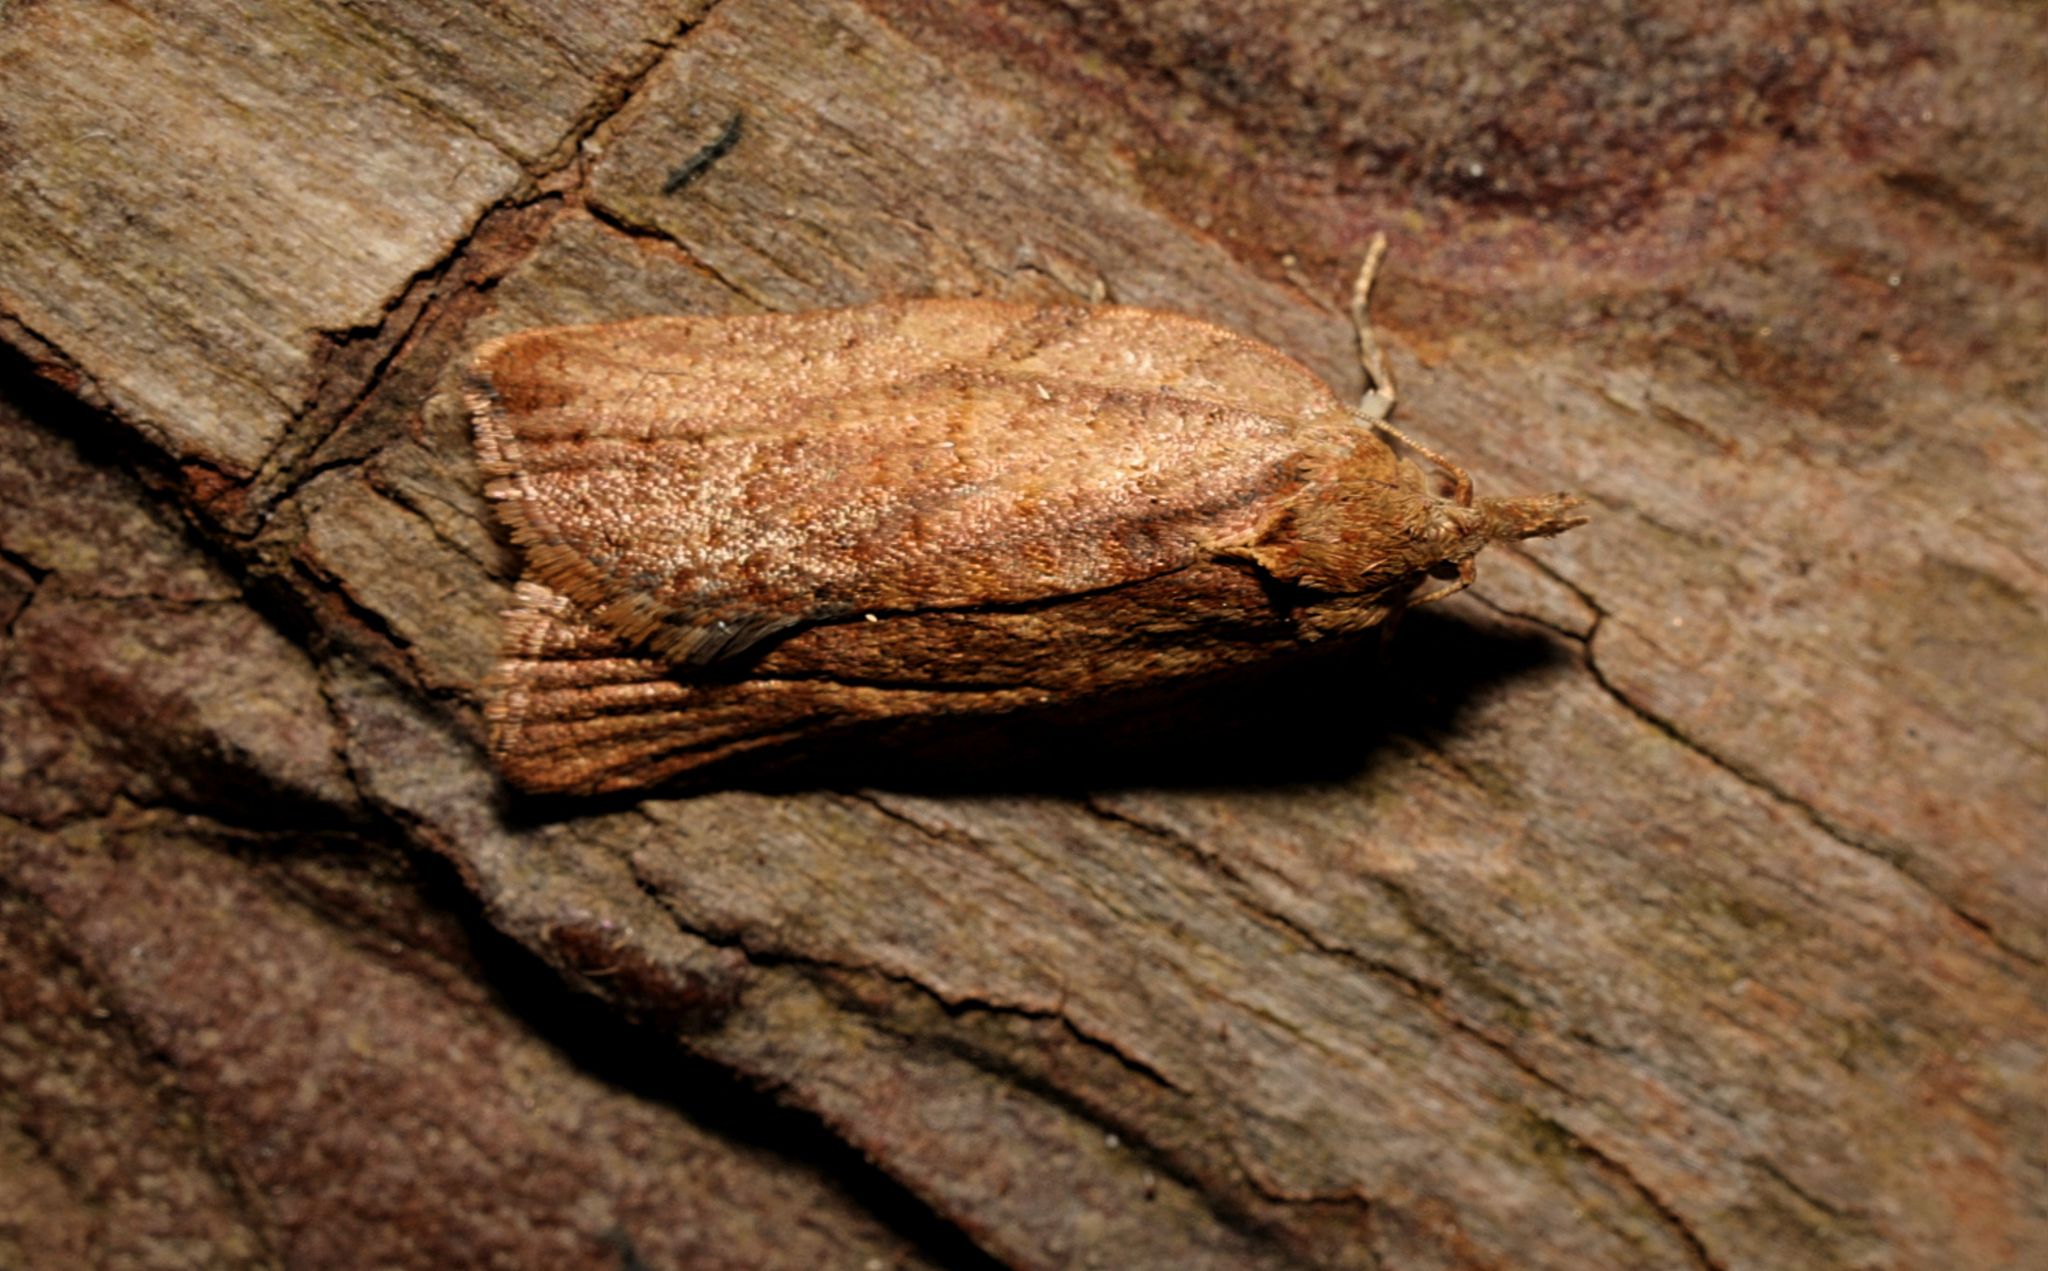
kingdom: Animalia
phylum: Arthropoda
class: Insecta
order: Lepidoptera
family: Tortricidae
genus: Epiphyas
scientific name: Epiphyas postvittana
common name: Light brown apple moth
